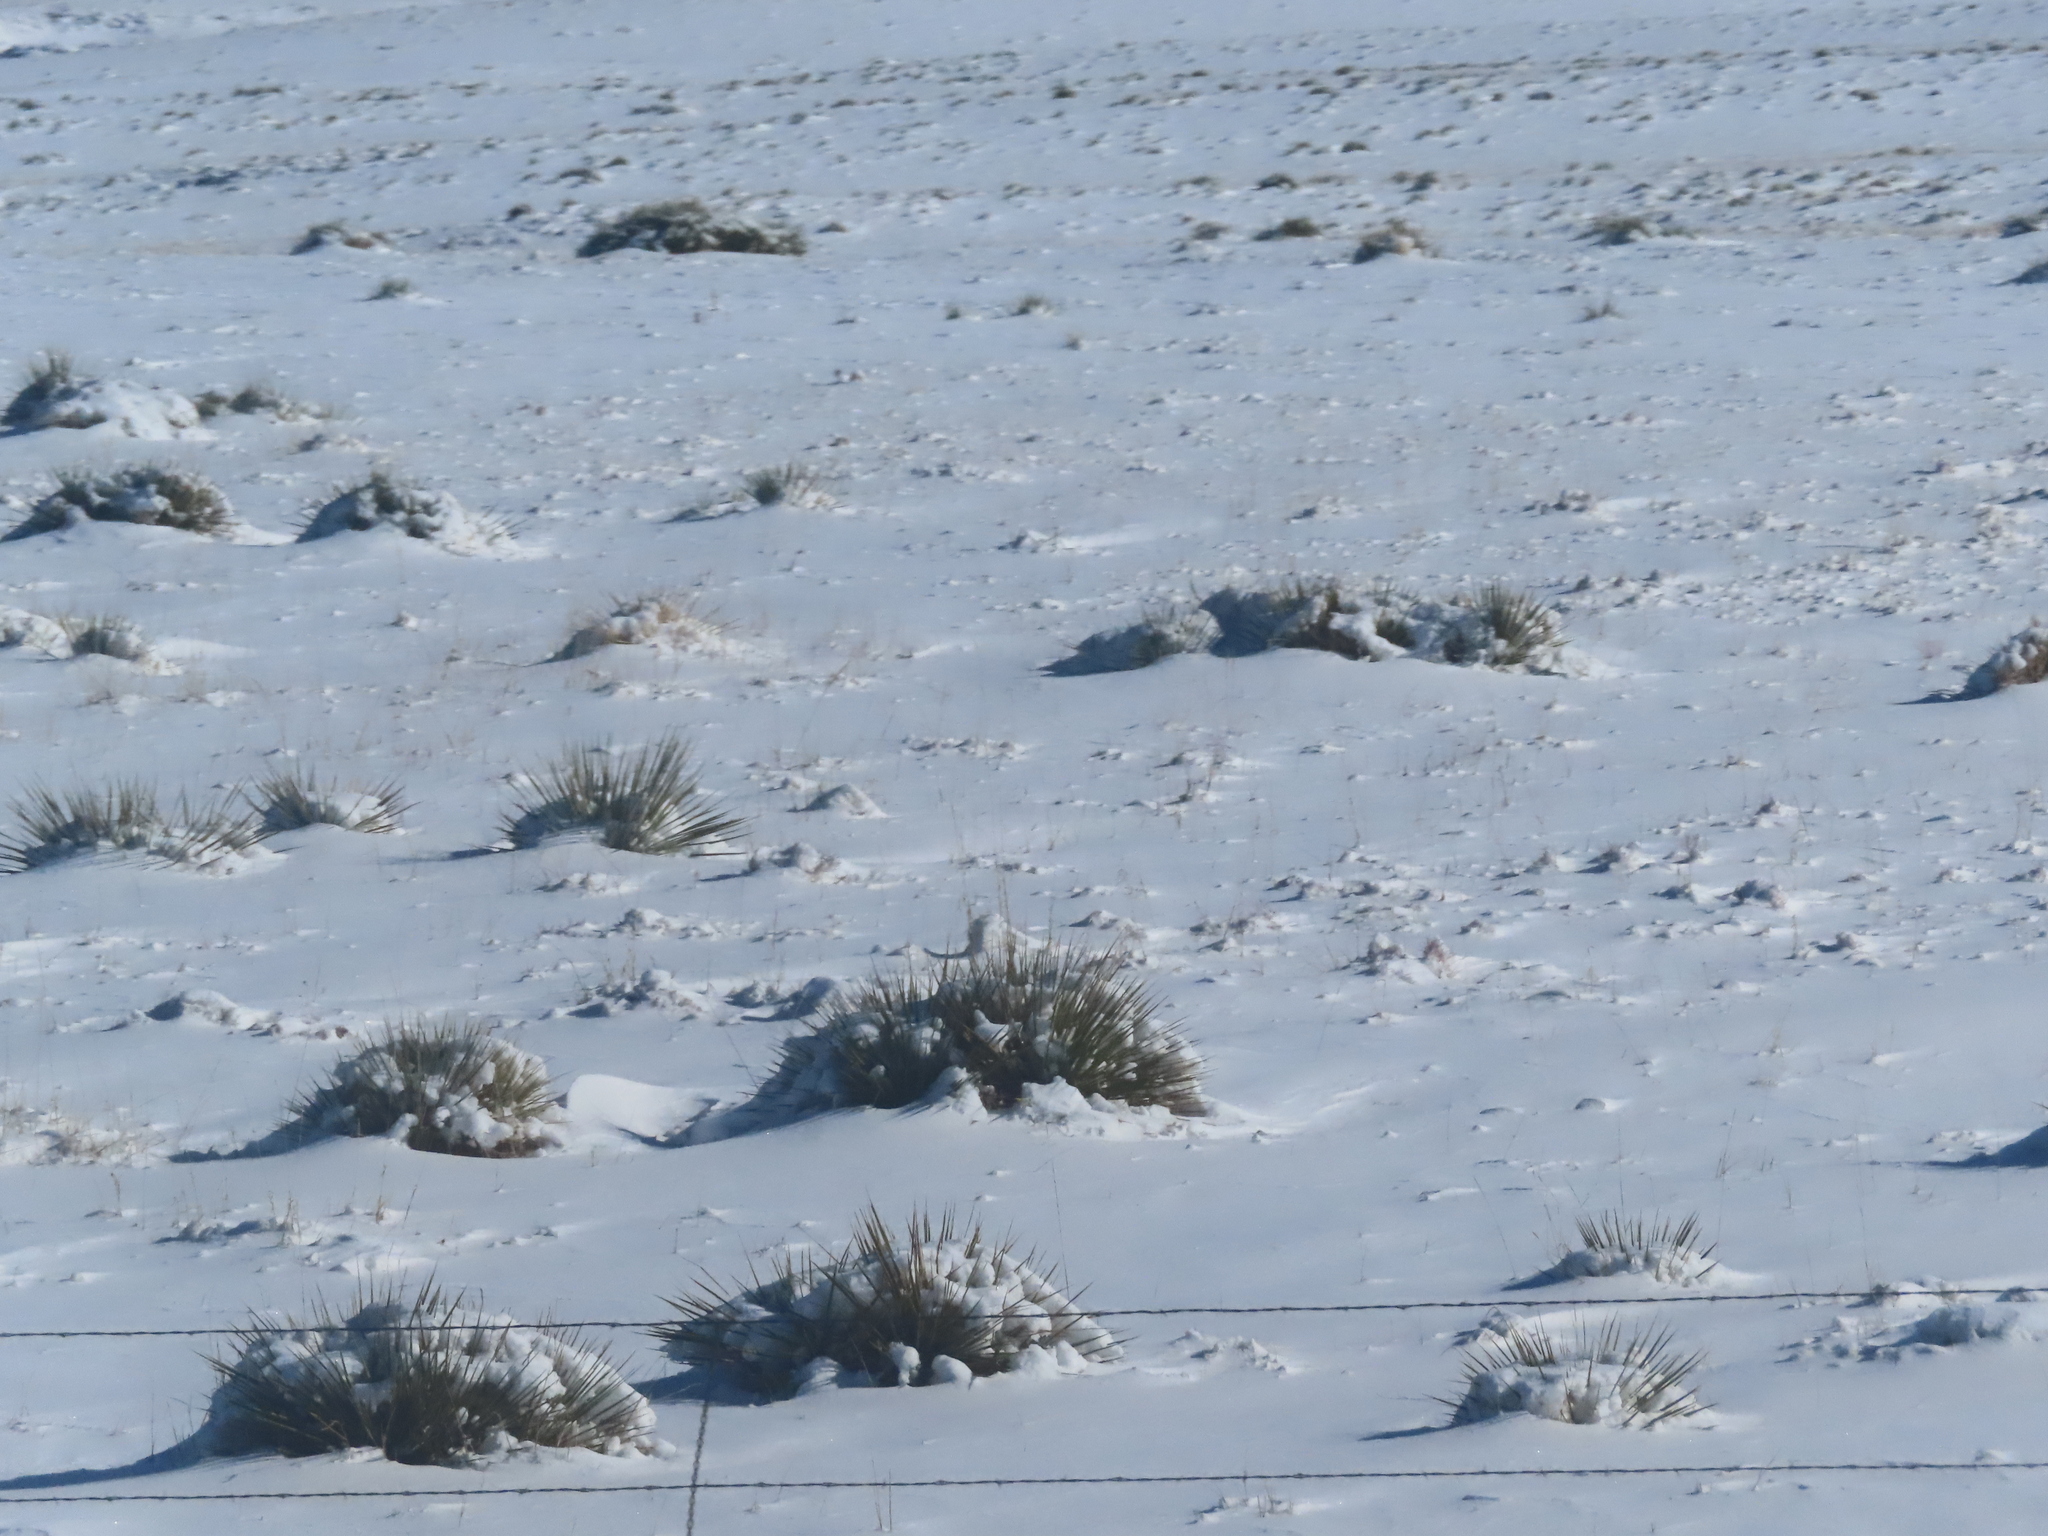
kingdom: Plantae
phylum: Tracheophyta
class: Liliopsida
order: Asparagales
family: Asparagaceae
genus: Yucca
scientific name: Yucca glauca
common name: Great plains yucca
